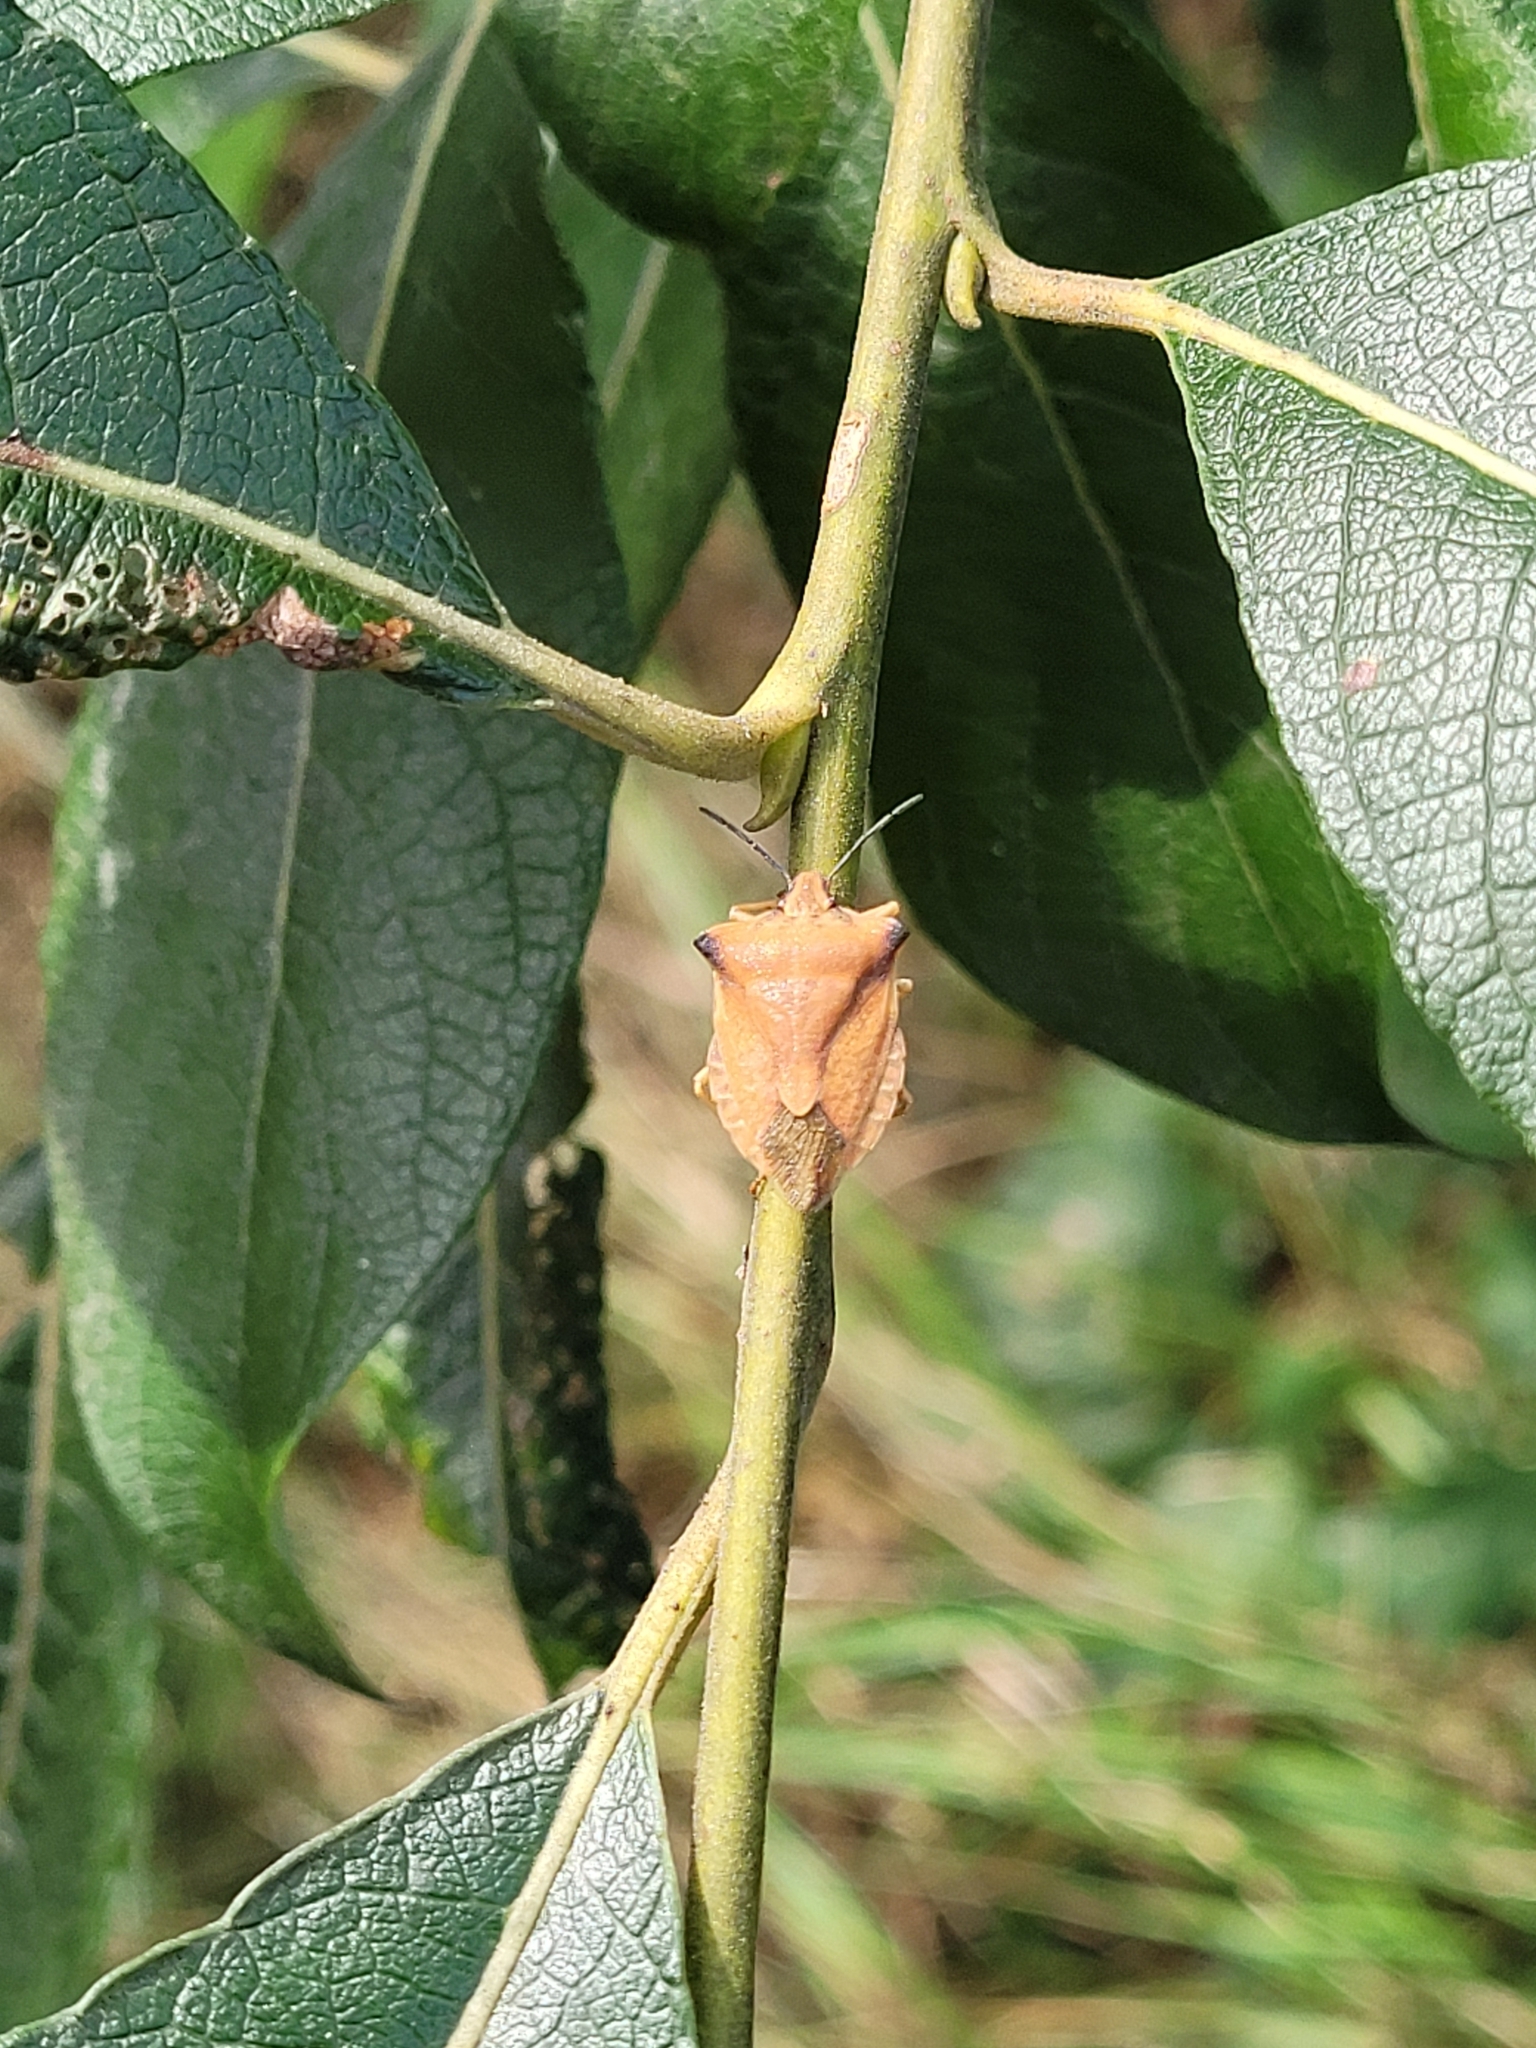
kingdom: Animalia
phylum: Arthropoda
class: Insecta
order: Hemiptera
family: Pentatomidae
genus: Carpocoris
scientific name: Carpocoris fuscispinus
